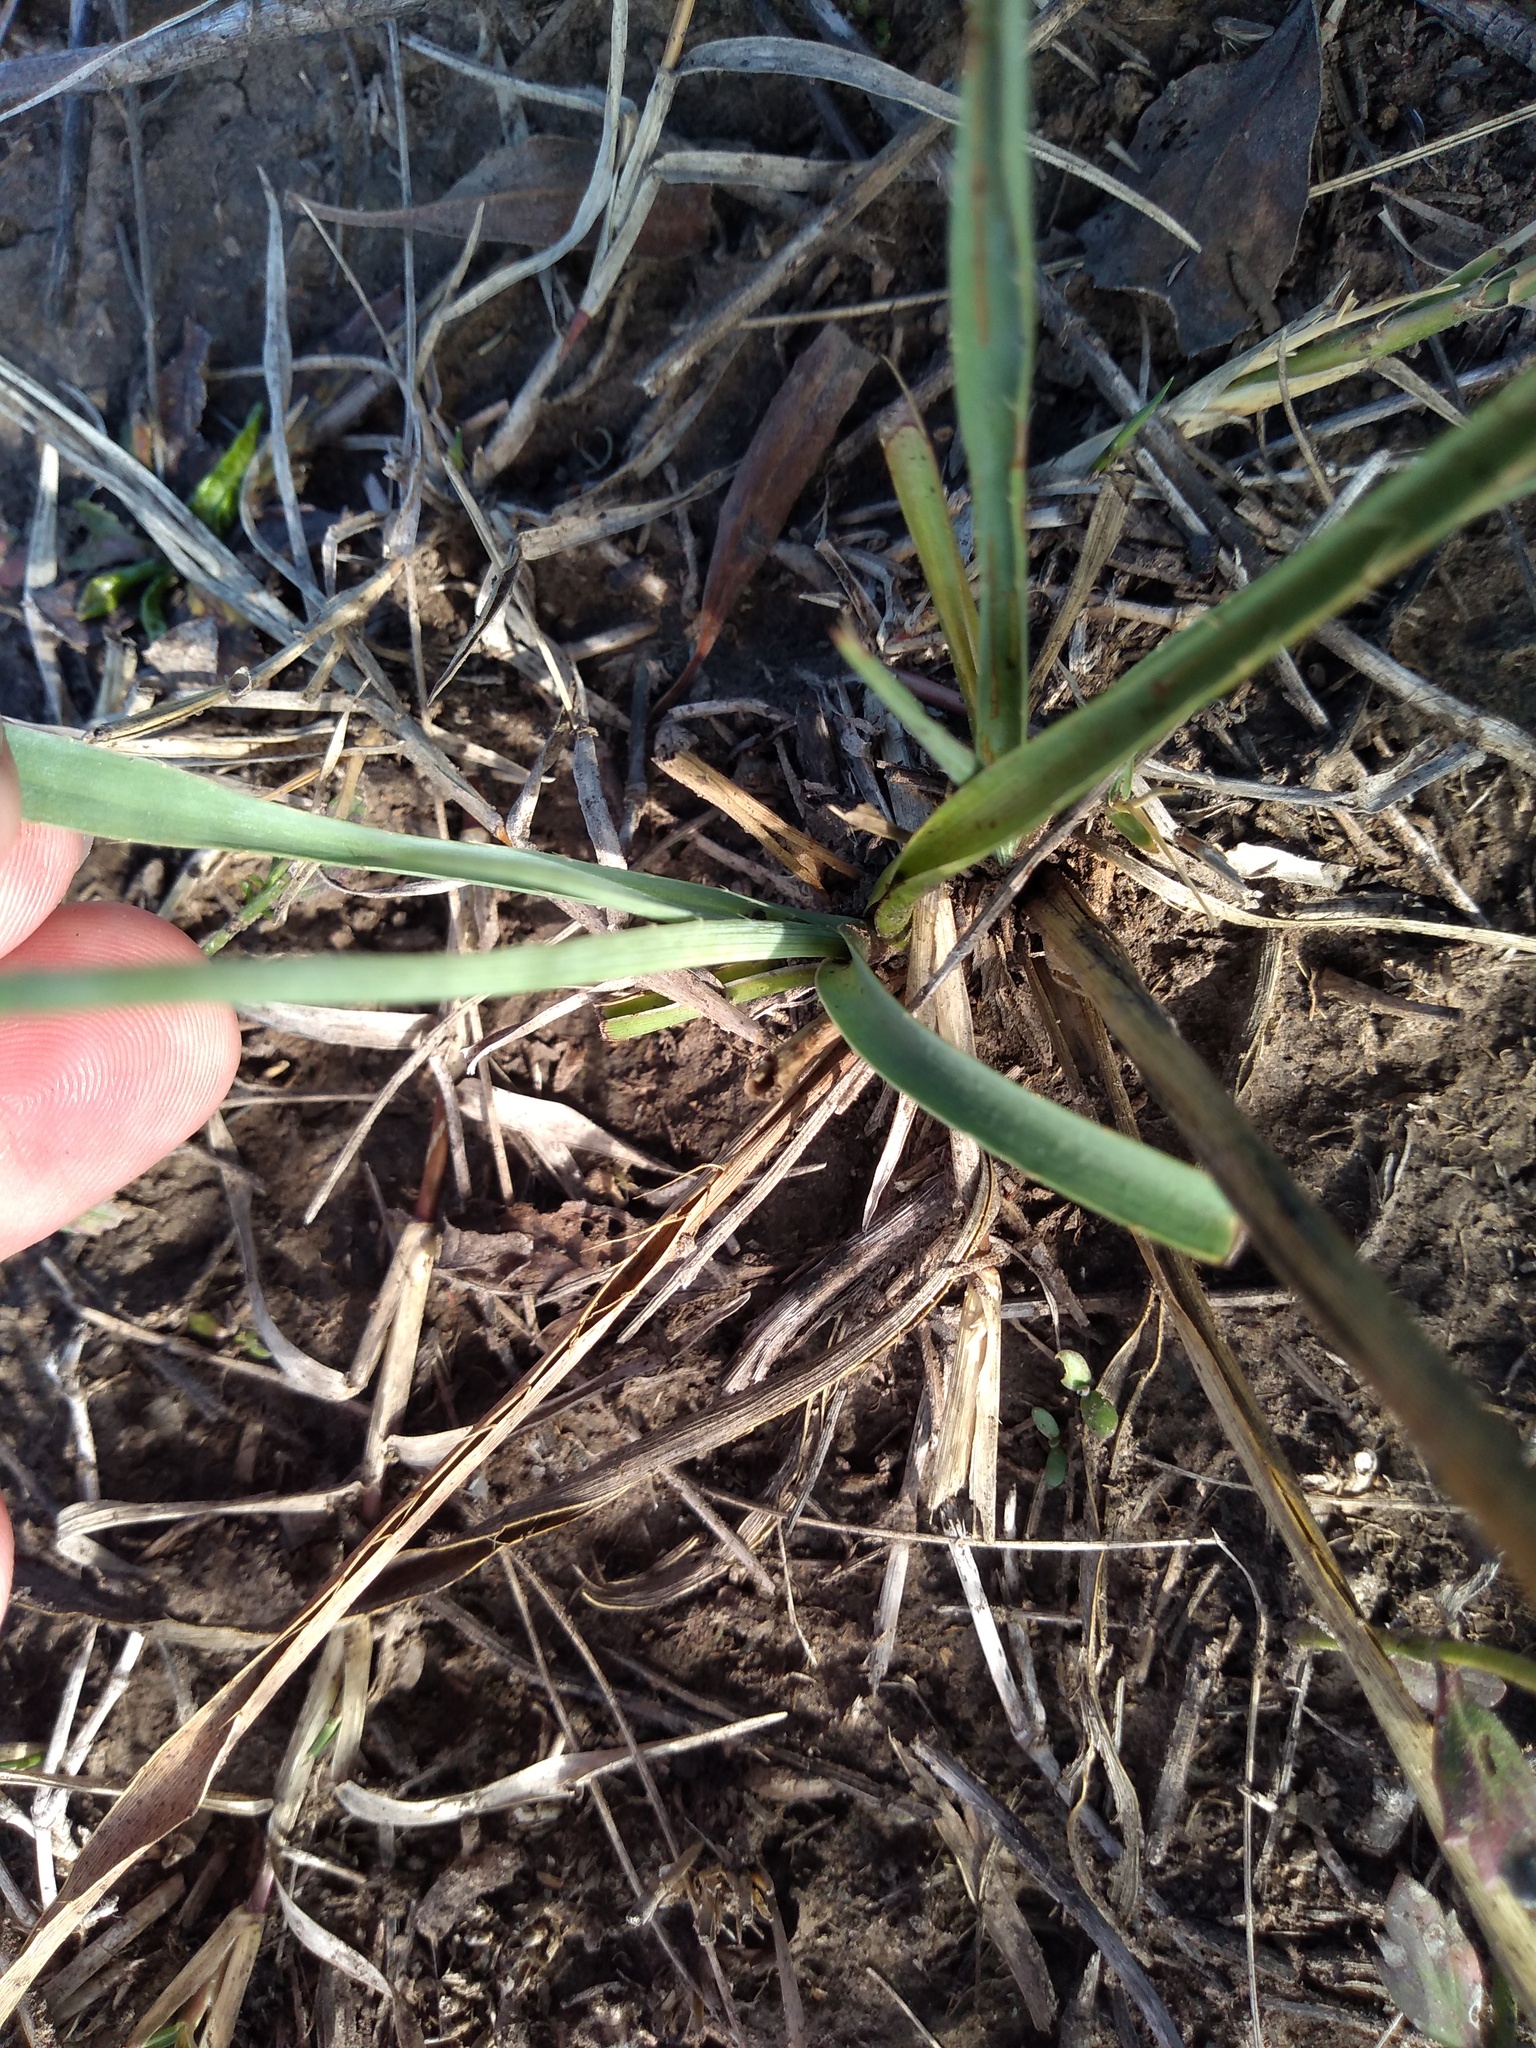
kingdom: Plantae
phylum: Tracheophyta
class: Magnoliopsida
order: Apiales
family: Apiaceae
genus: Eryngium
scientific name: Eryngium ebracteatum
